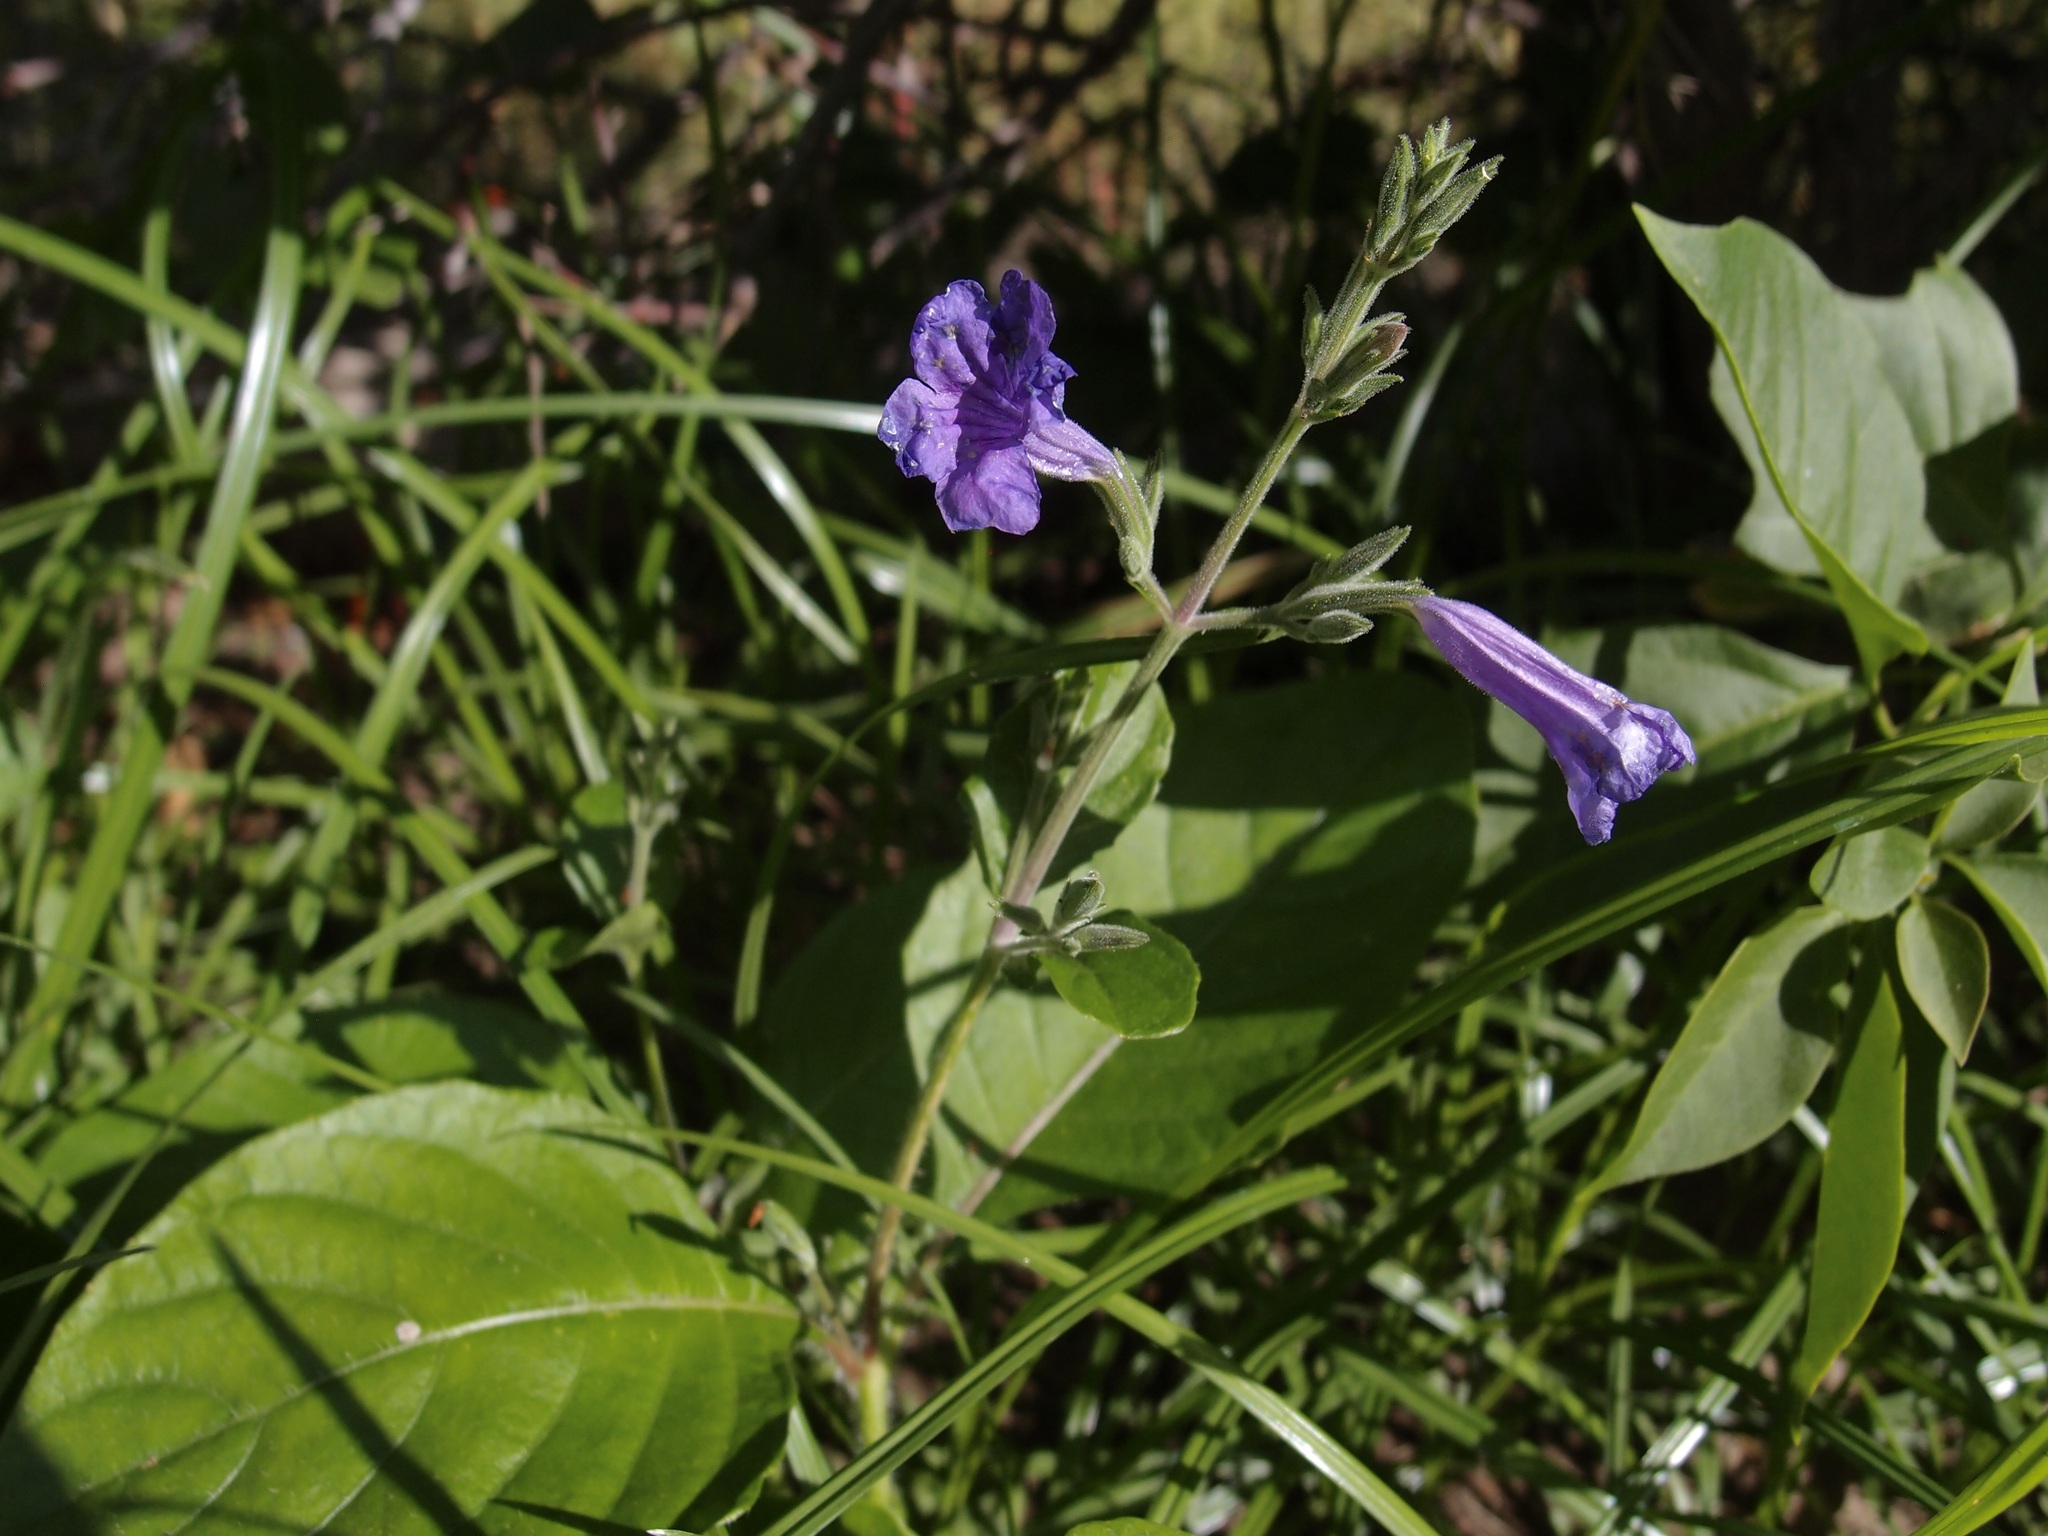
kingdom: Plantae
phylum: Tracheophyta
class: Magnoliopsida
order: Lamiales
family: Acanthaceae
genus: Ruellia
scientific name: Ruellia ciliatiflora
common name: Hairyflower wild petunia
